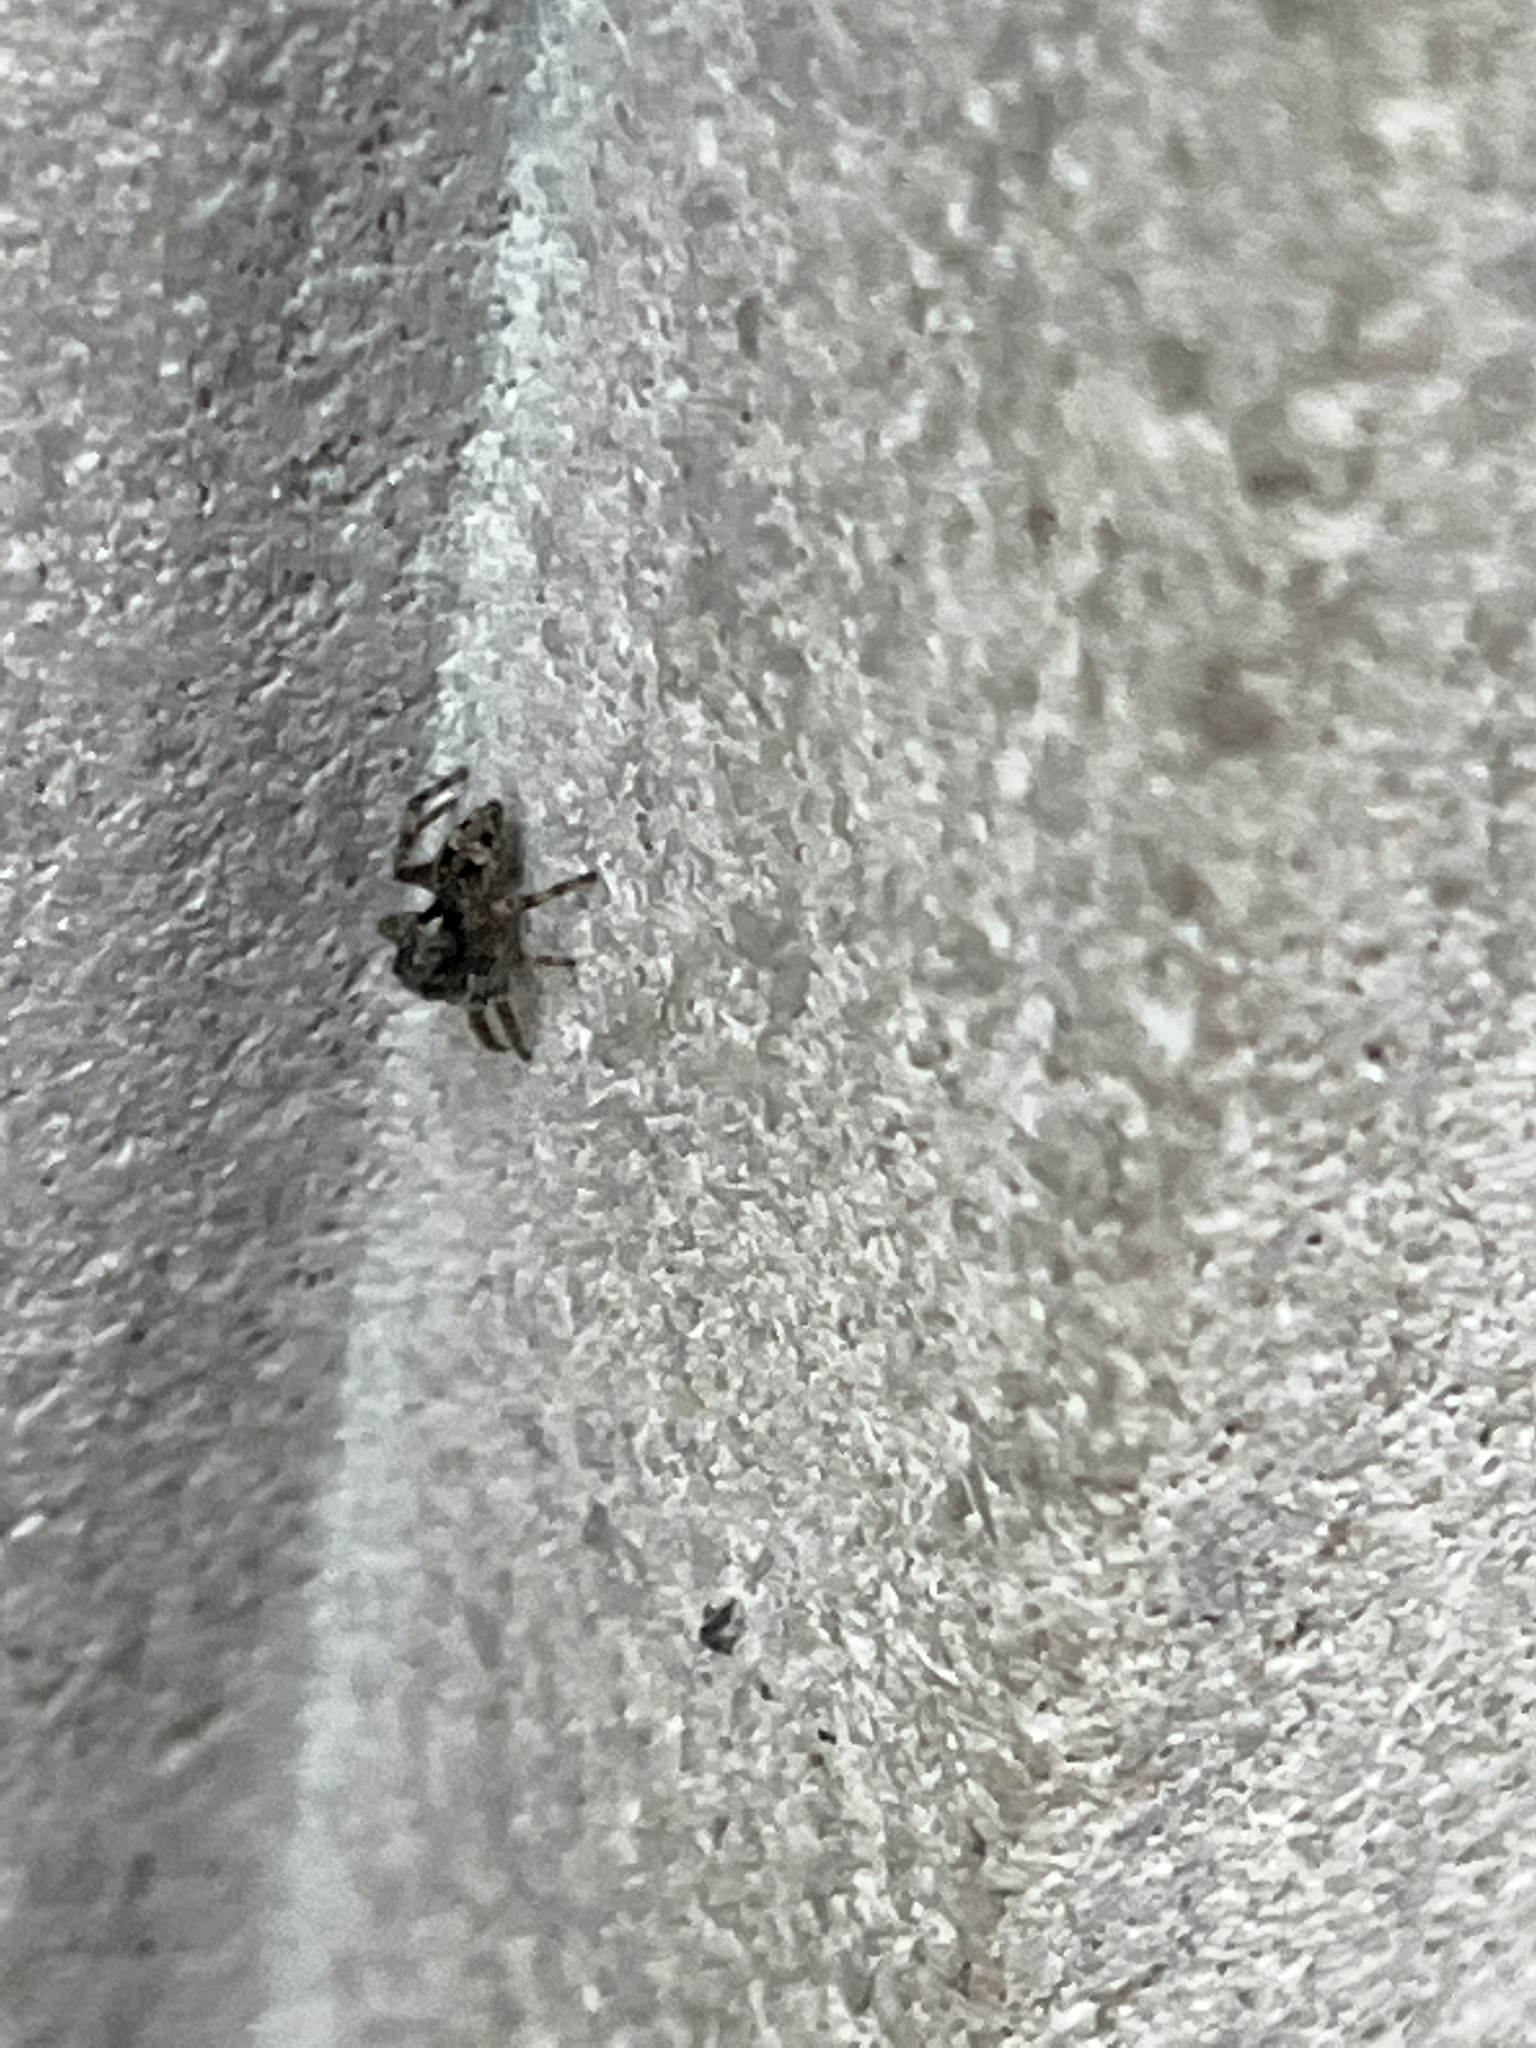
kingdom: Animalia
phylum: Arthropoda
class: Arachnida
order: Araneae
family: Salticidae
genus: Attulus
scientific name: Attulus fasciger
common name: Asiatic wall jumping spider
